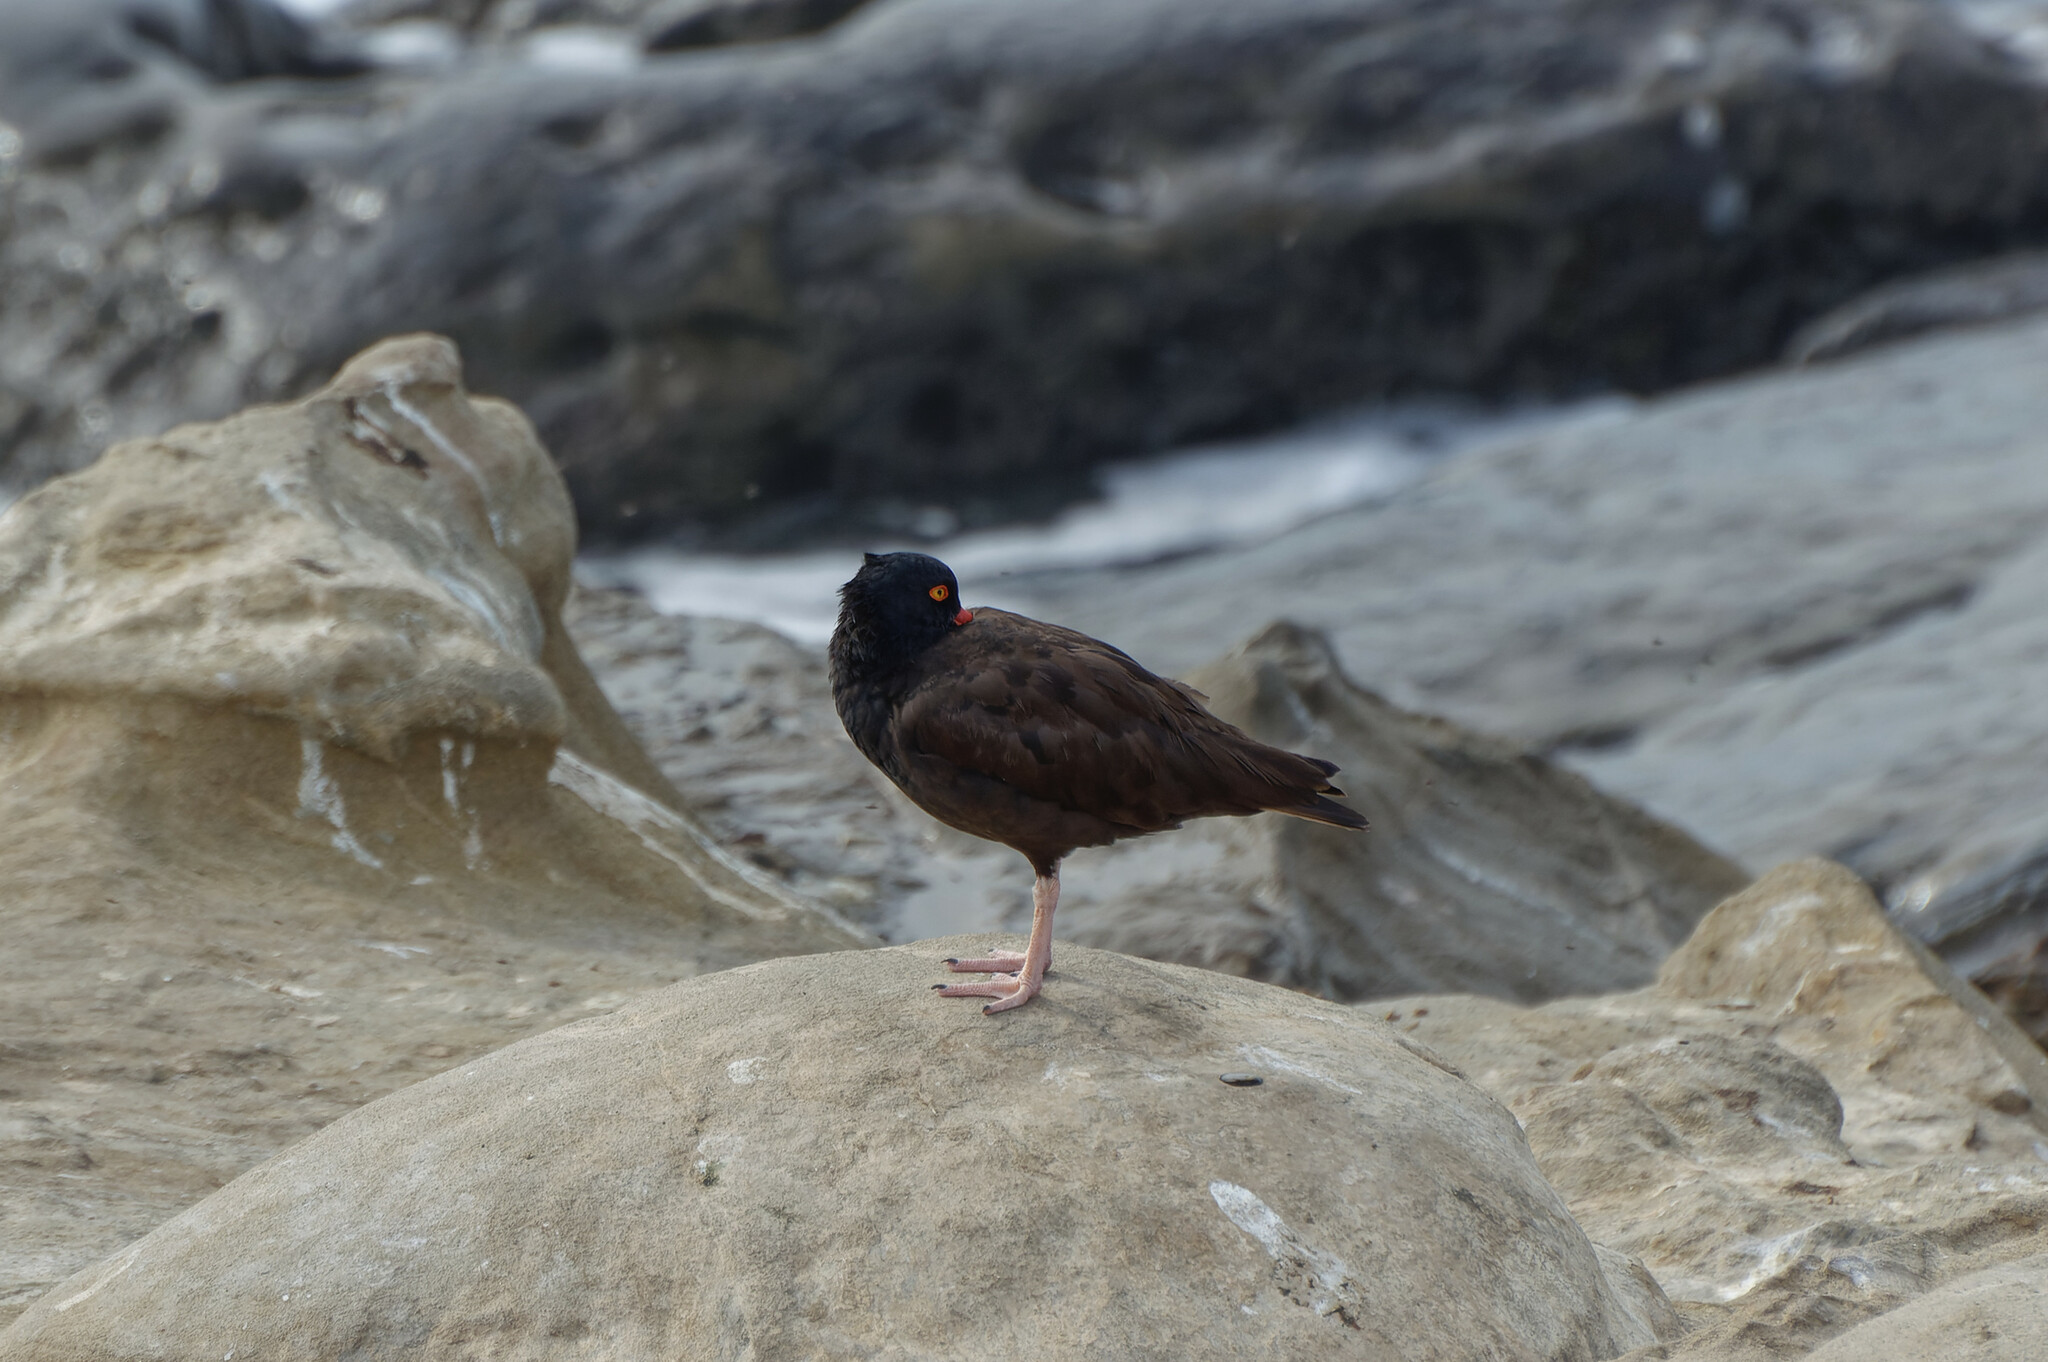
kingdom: Animalia
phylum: Chordata
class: Aves
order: Charadriiformes
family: Haematopodidae
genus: Haematopus
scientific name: Haematopus bachmani
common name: Black oystercatcher
